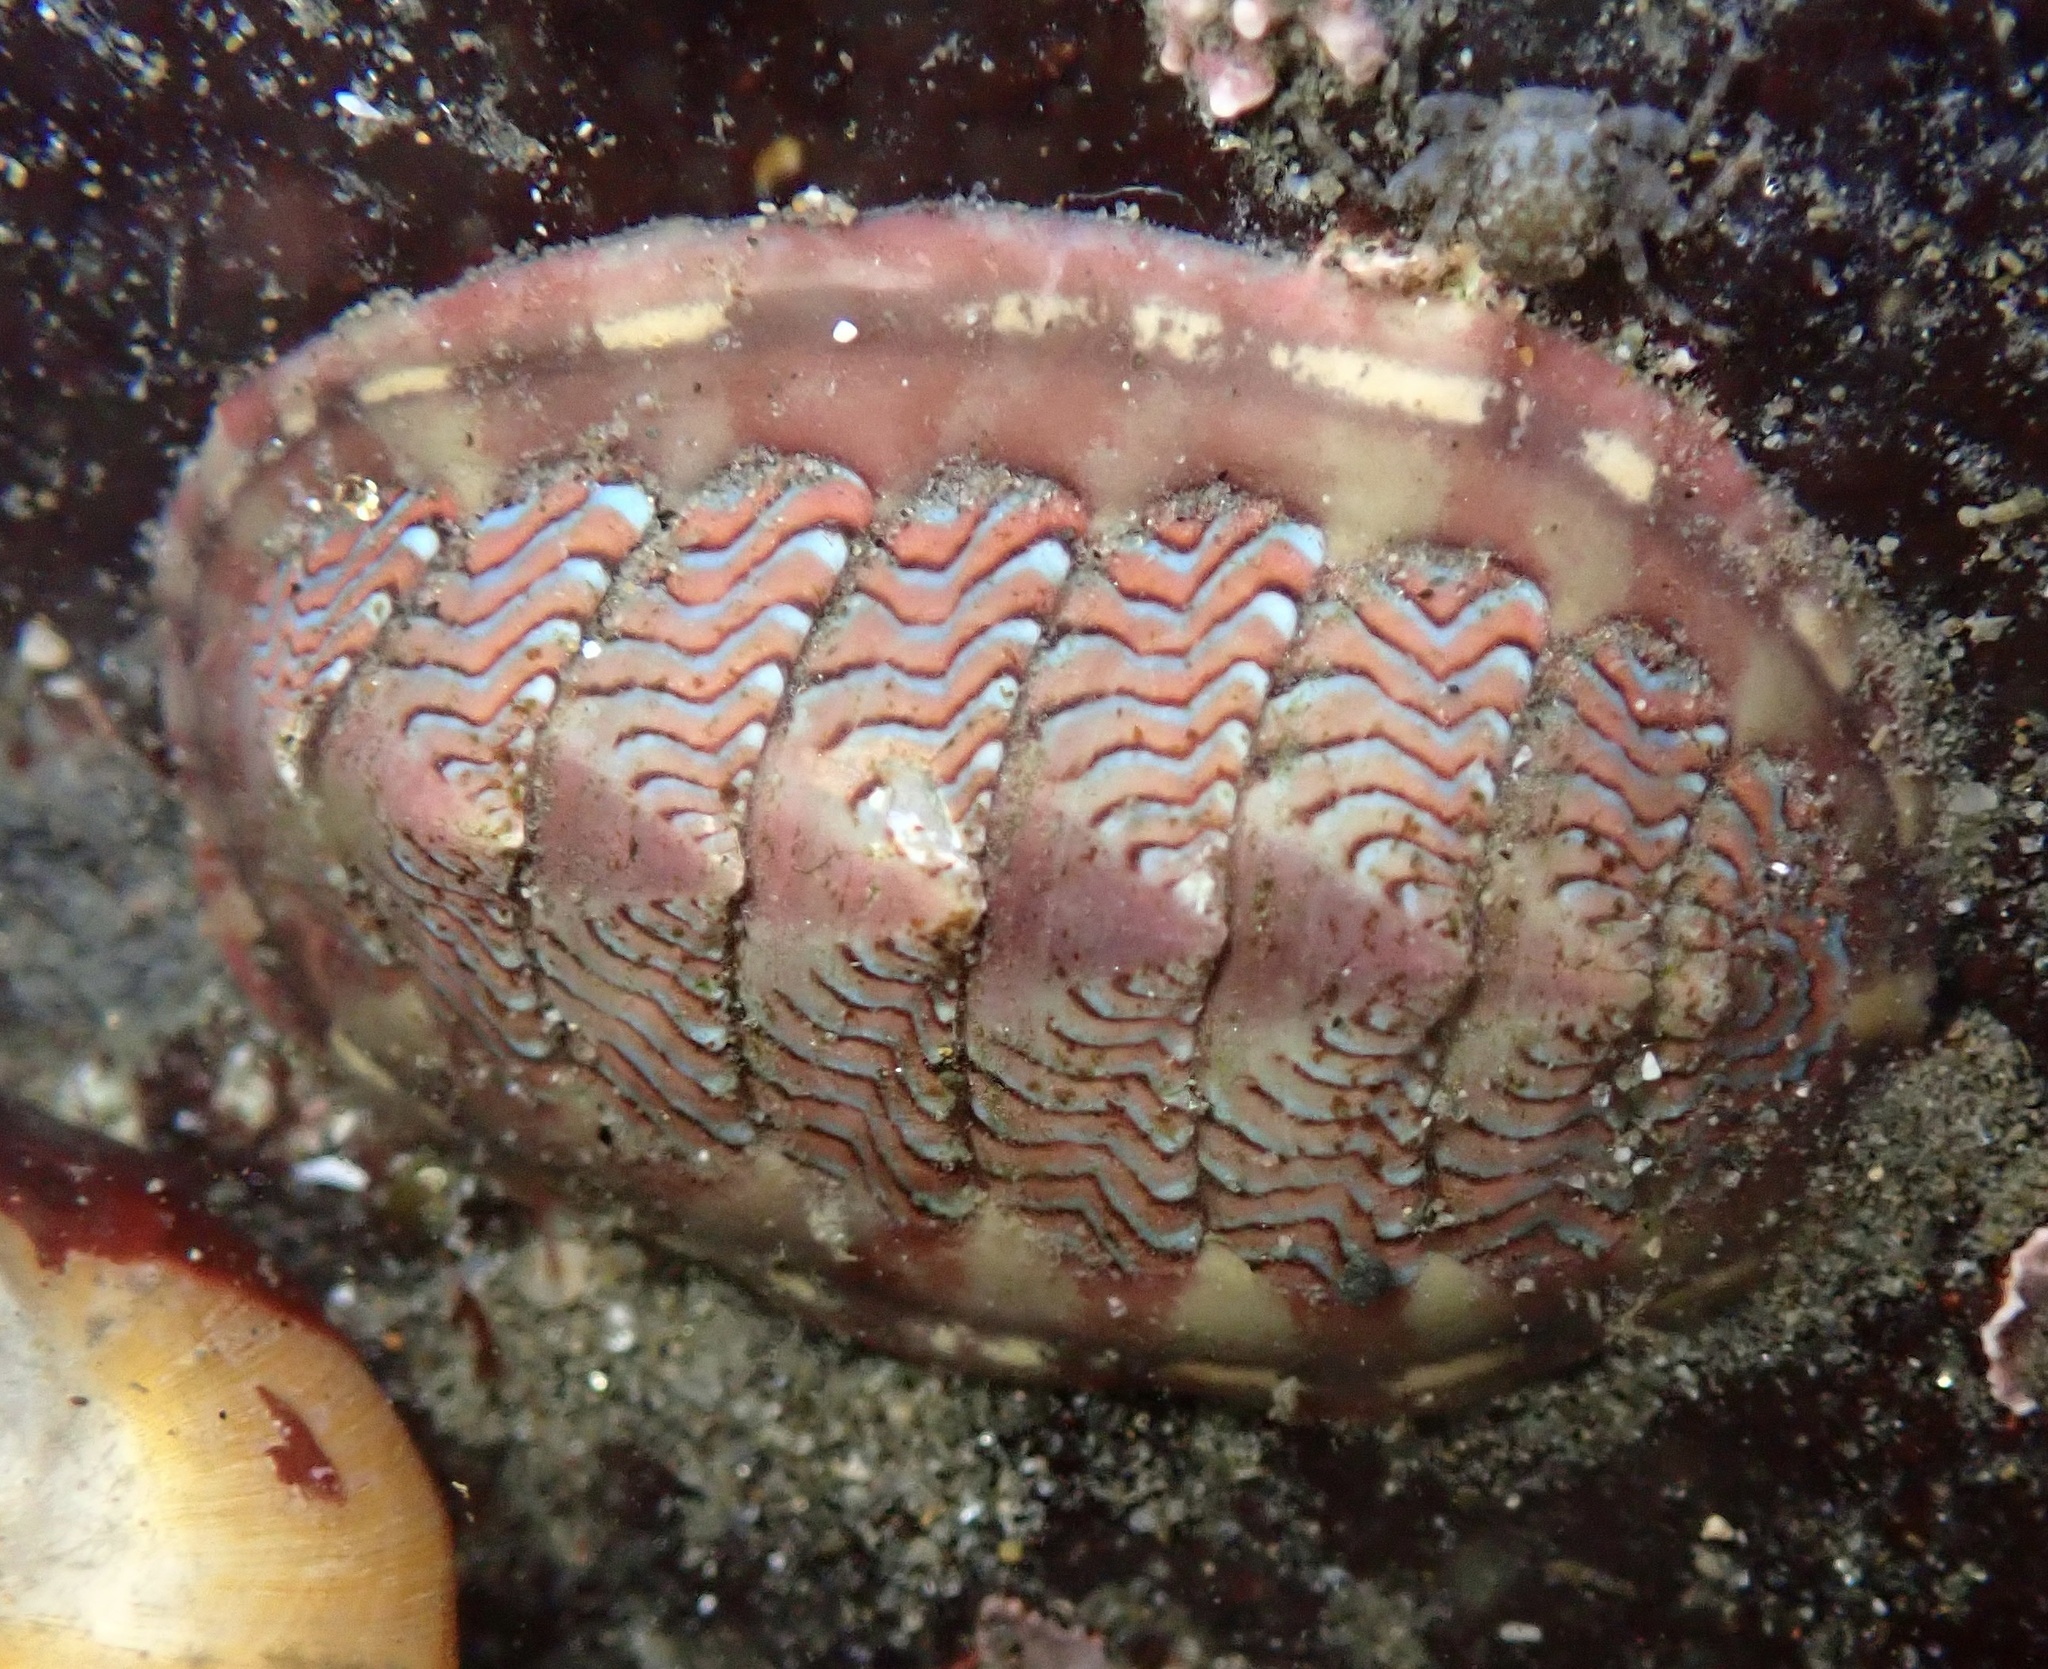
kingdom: Animalia
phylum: Mollusca
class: Polyplacophora
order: Chitonida
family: Tonicellidae
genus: Tonicella
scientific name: Tonicella lokii
